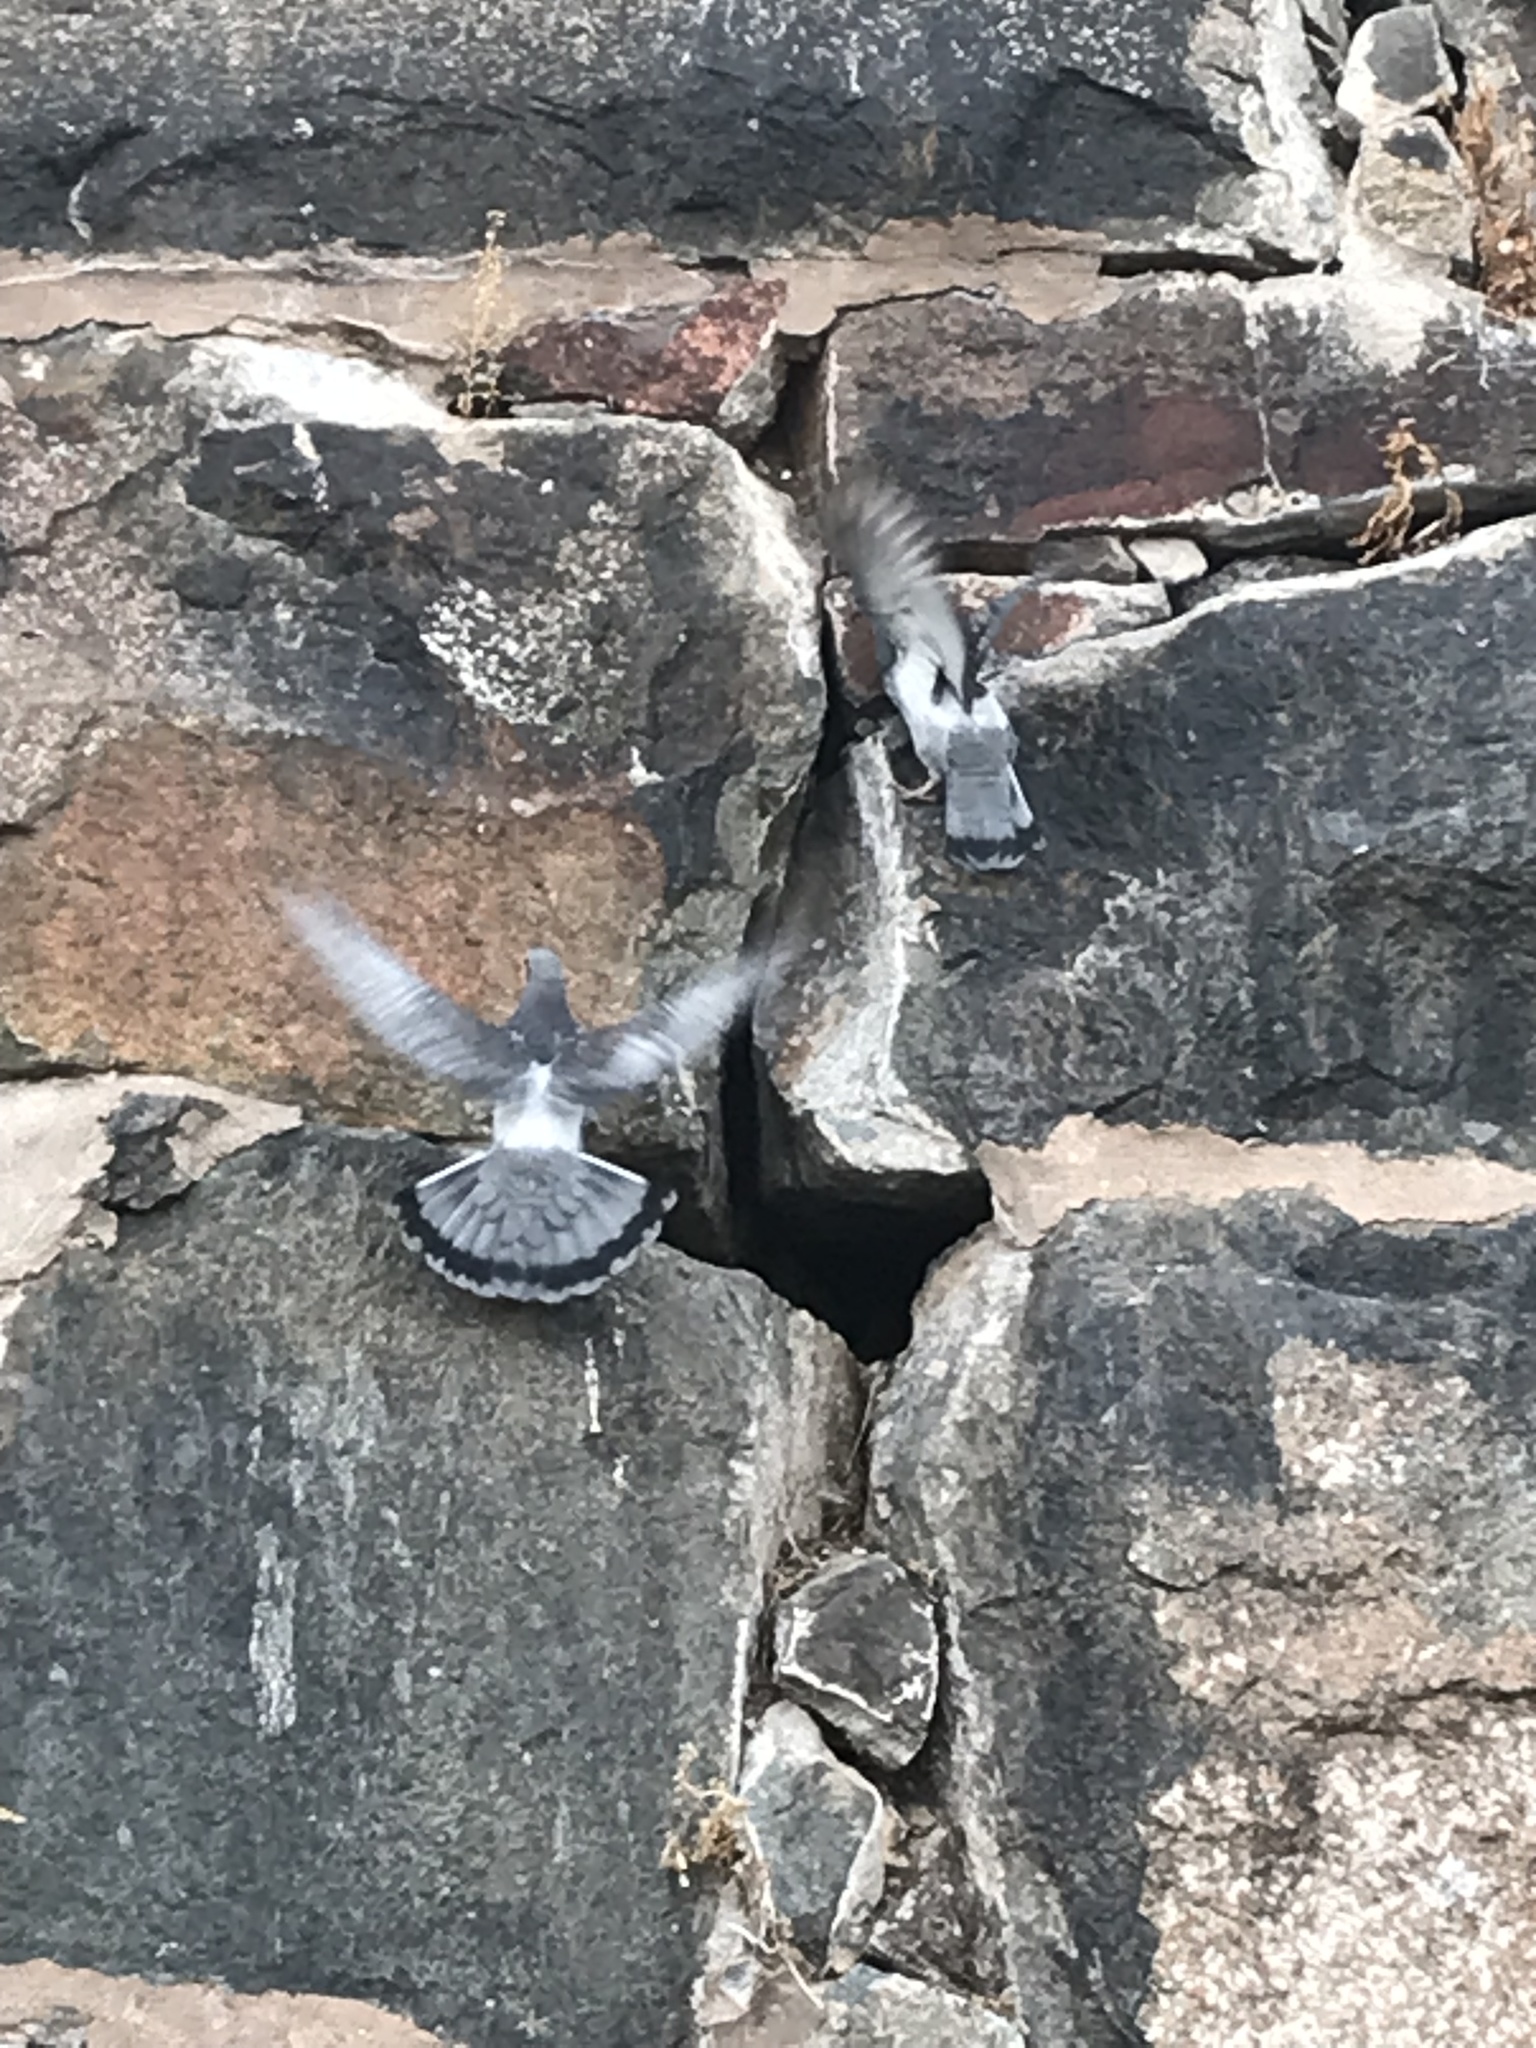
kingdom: Animalia
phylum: Chordata
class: Aves
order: Columbiformes
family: Columbidae
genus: Columba
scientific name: Columba livia
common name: Rock pigeon
